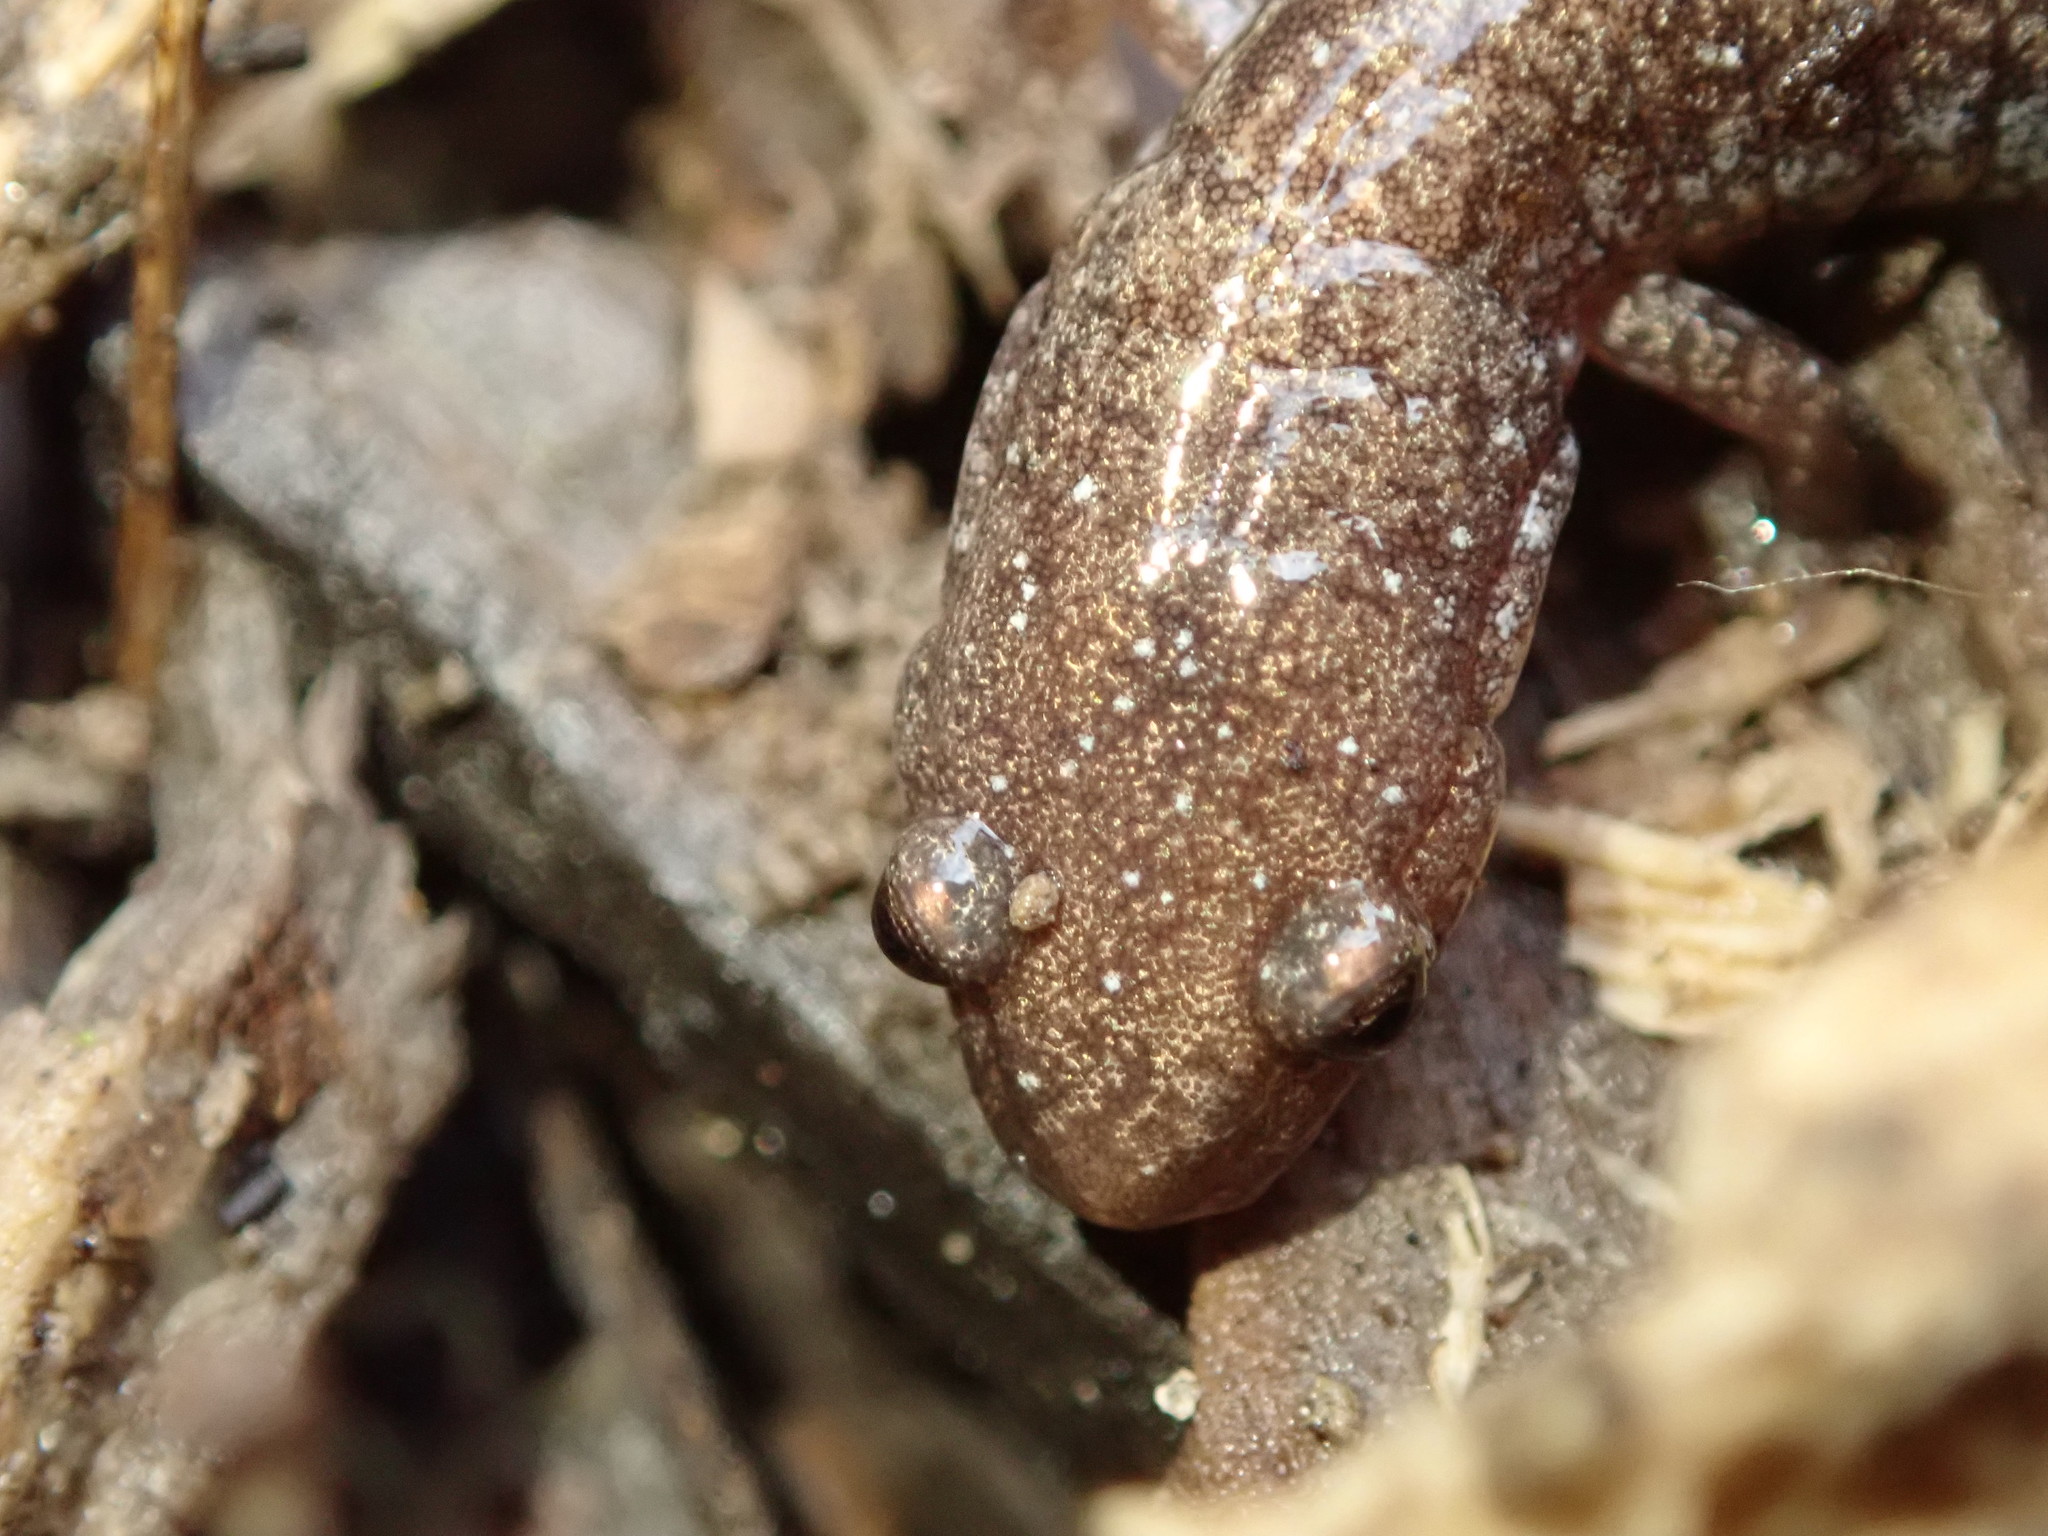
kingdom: Animalia
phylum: Chordata
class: Amphibia
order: Caudata
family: Plethodontidae
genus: Plethodon
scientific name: Plethodon cinereus
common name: Redback salamander
